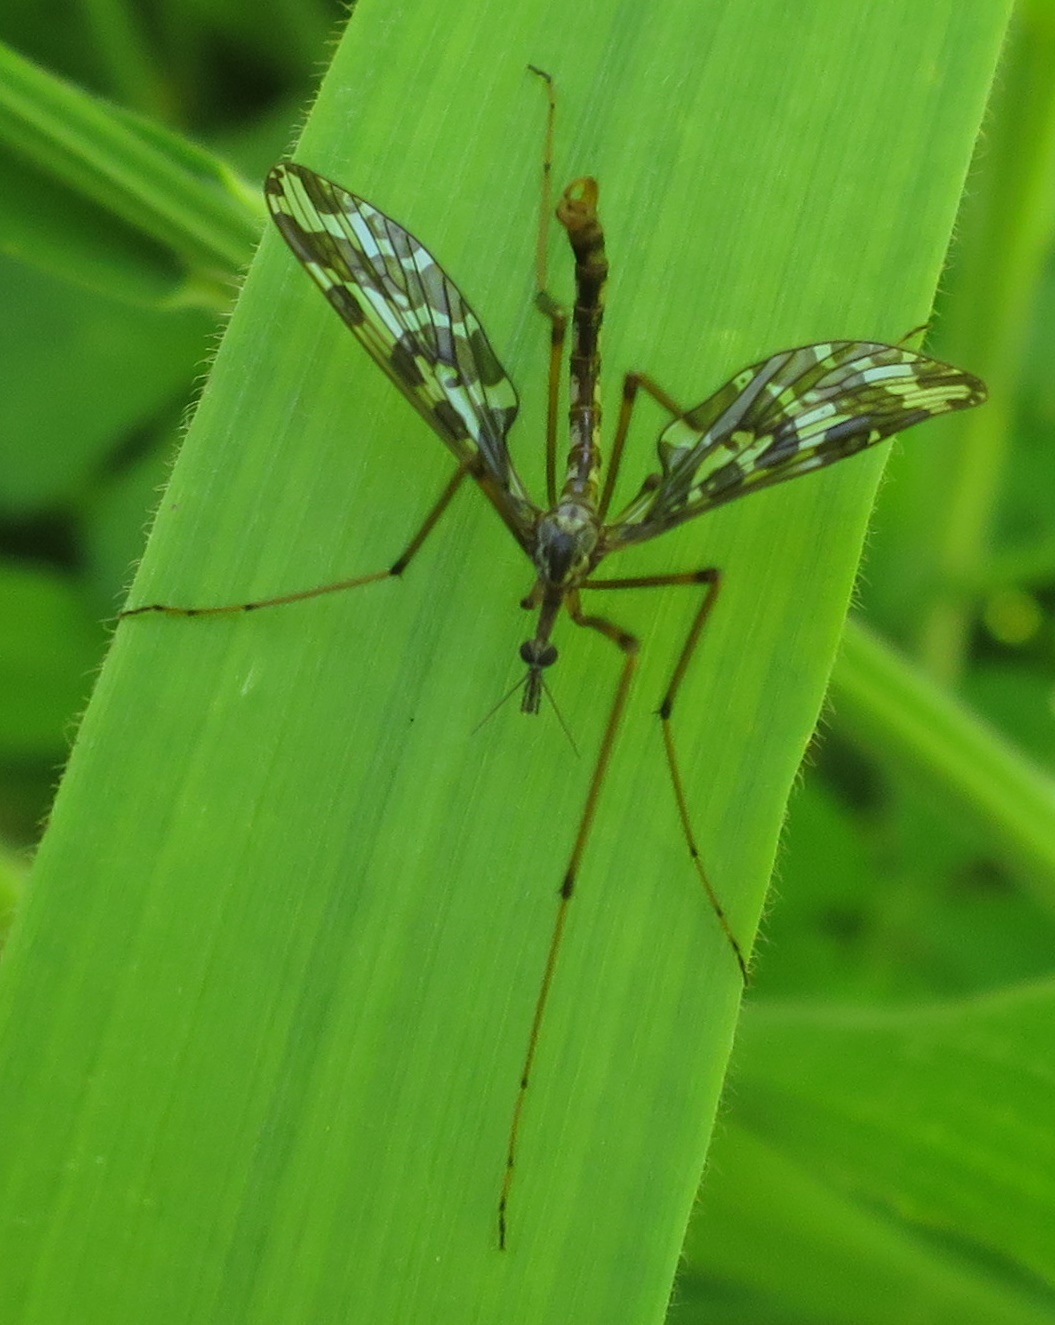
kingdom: Animalia
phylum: Arthropoda
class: Insecta
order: Diptera
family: Tanyderidae
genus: Tanyderus
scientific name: Tanyderus forcipatus
